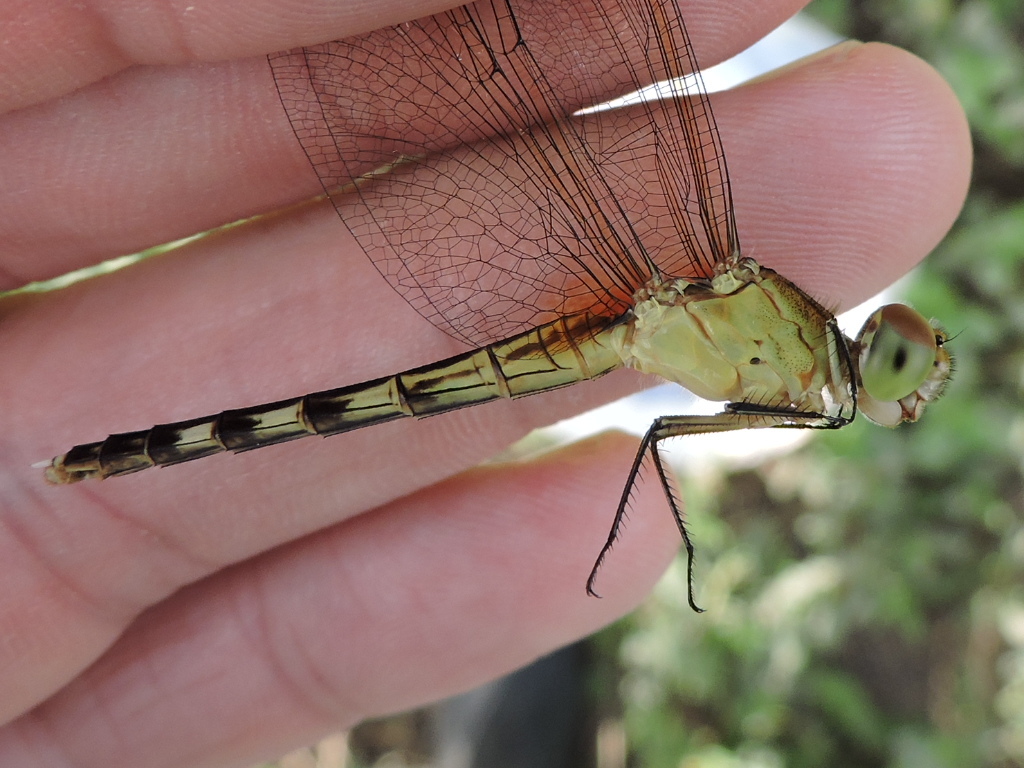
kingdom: Animalia
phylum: Arthropoda
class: Insecta
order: Odonata
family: Libellulidae
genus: Erythrodiplax
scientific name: Erythrodiplax umbrata
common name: Band-winged dragonlet
